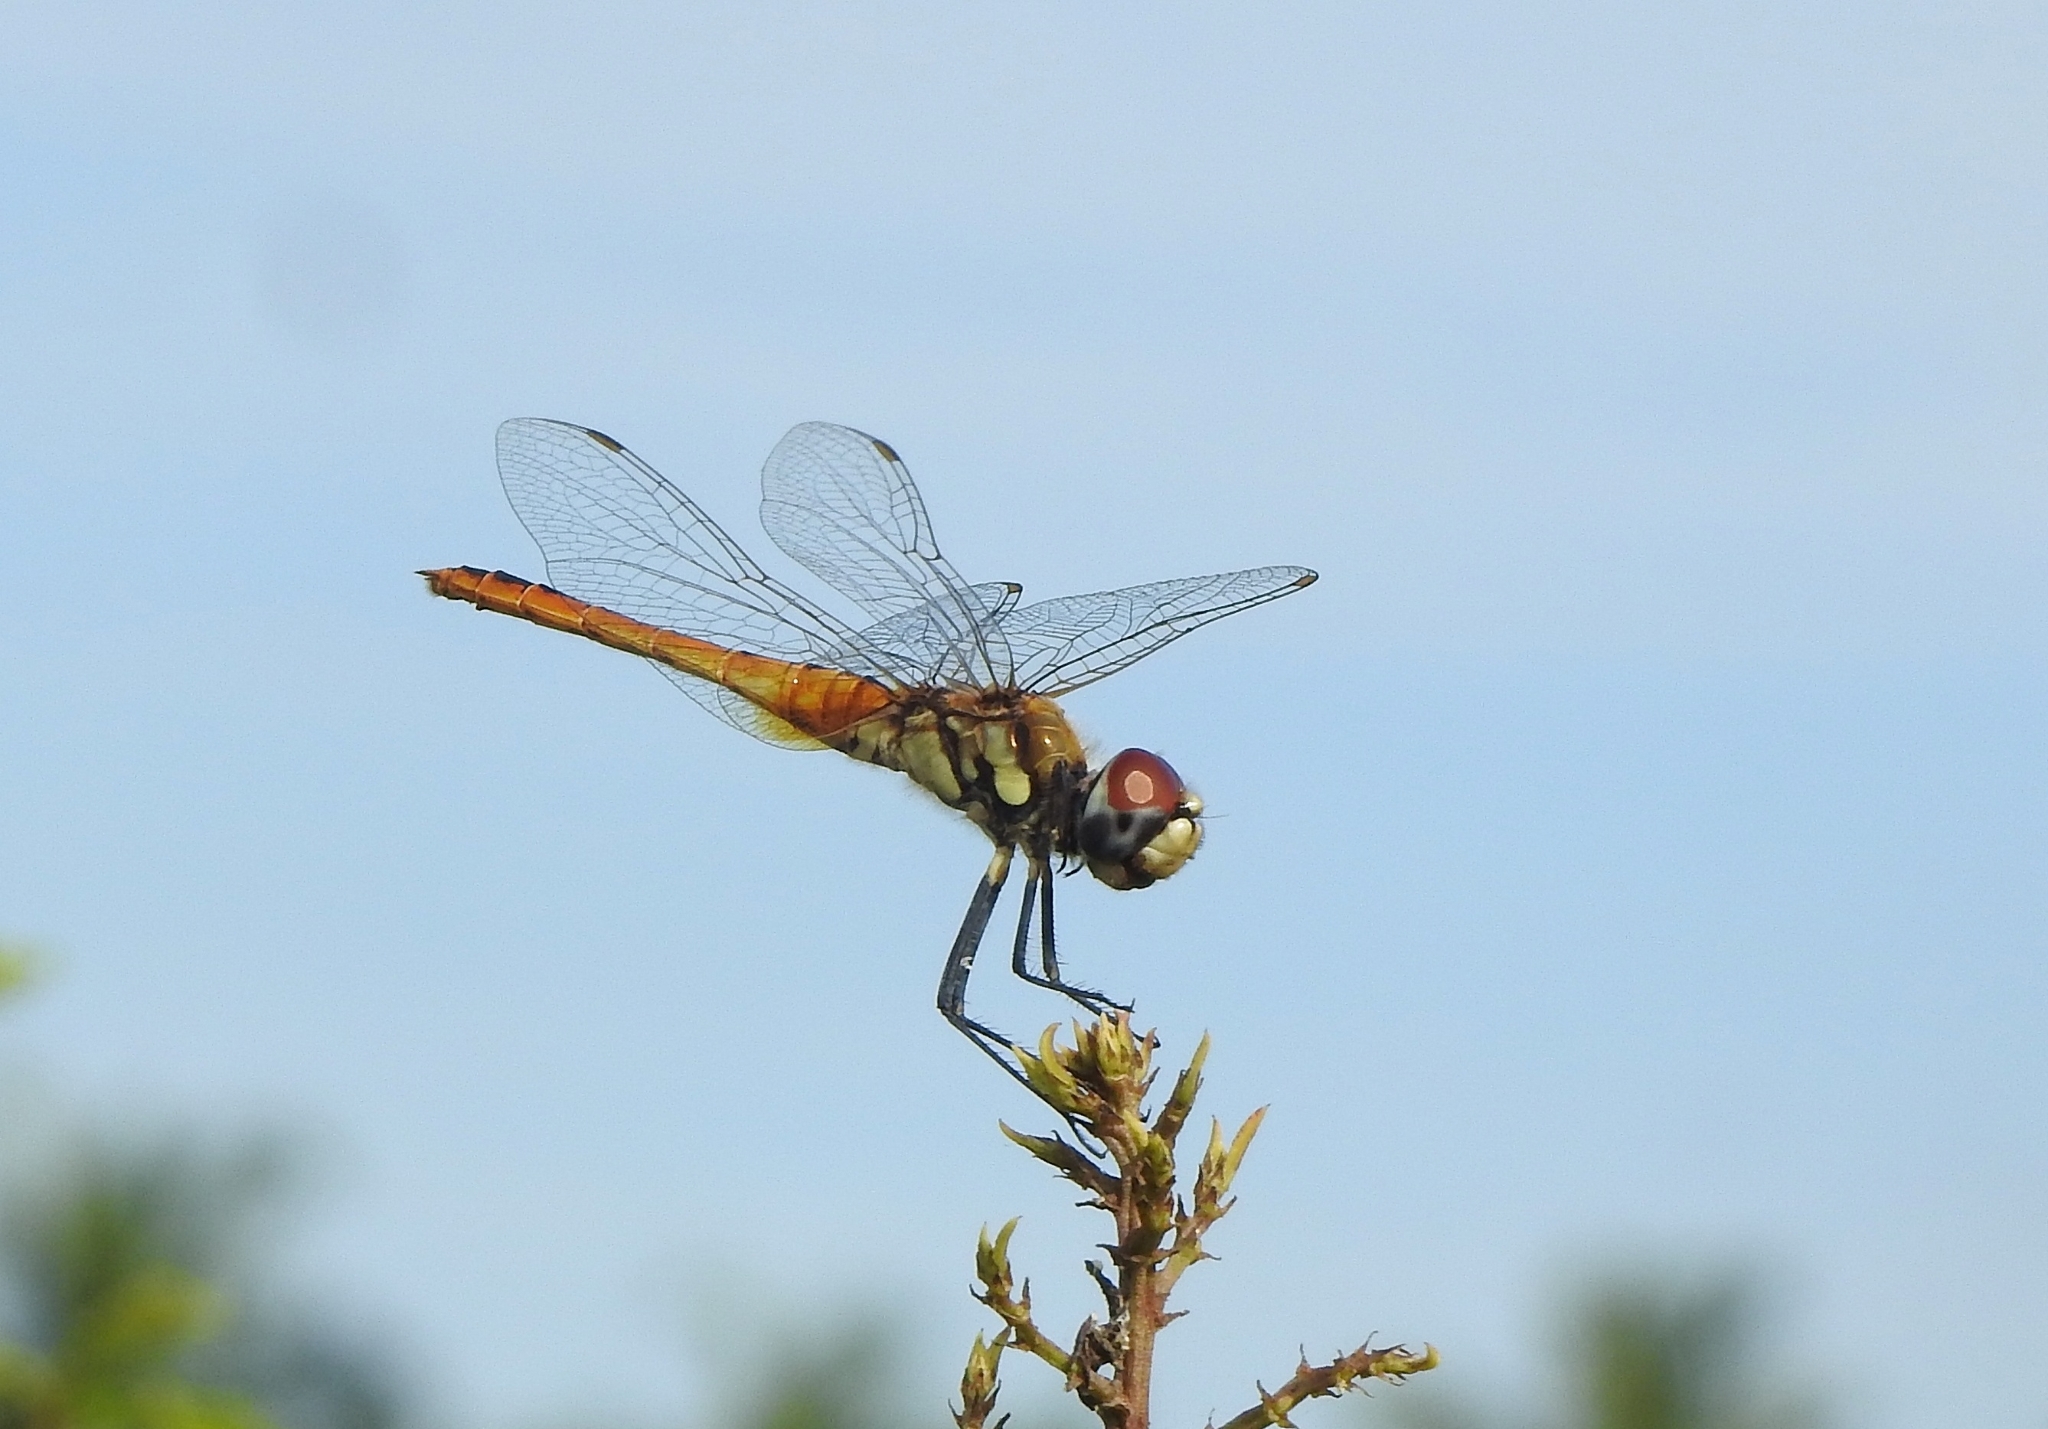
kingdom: Animalia
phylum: Arthropoda
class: Insecta
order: Odonata
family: Libellulidae
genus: Macrodiplax
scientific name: Macrodiplax cora
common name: Coastal glider
